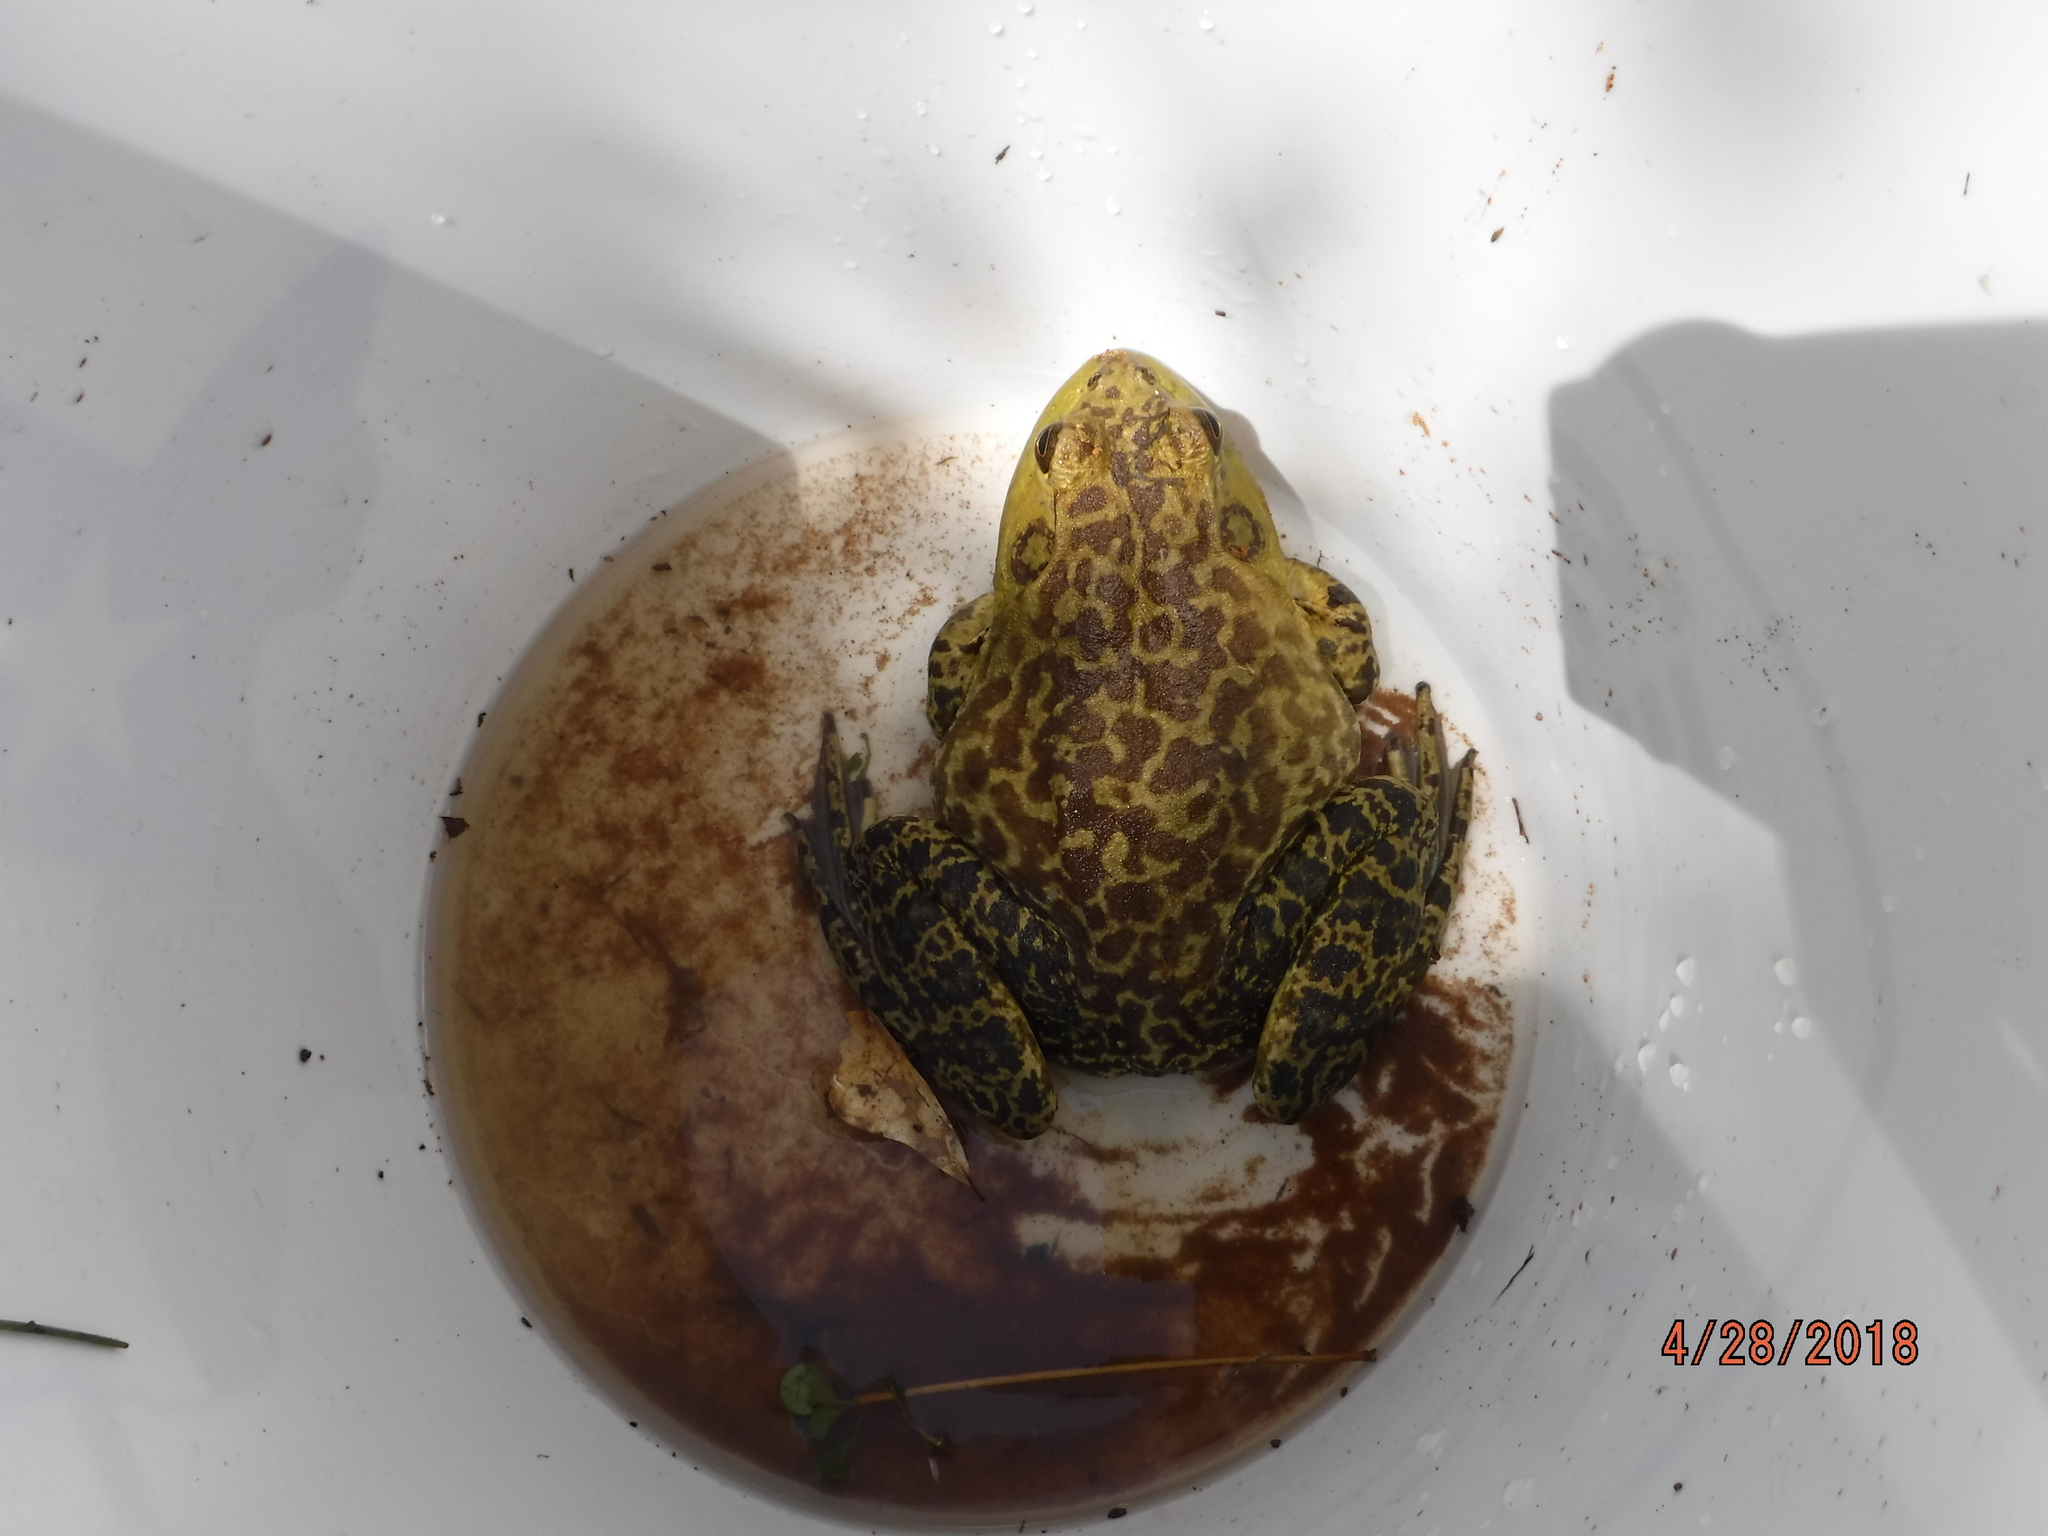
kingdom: Animalia
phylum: Chordata
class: Amphibia
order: Anura
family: Ranidae
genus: Lithobates
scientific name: Lithobates catesbeianus
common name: American bullfrog
